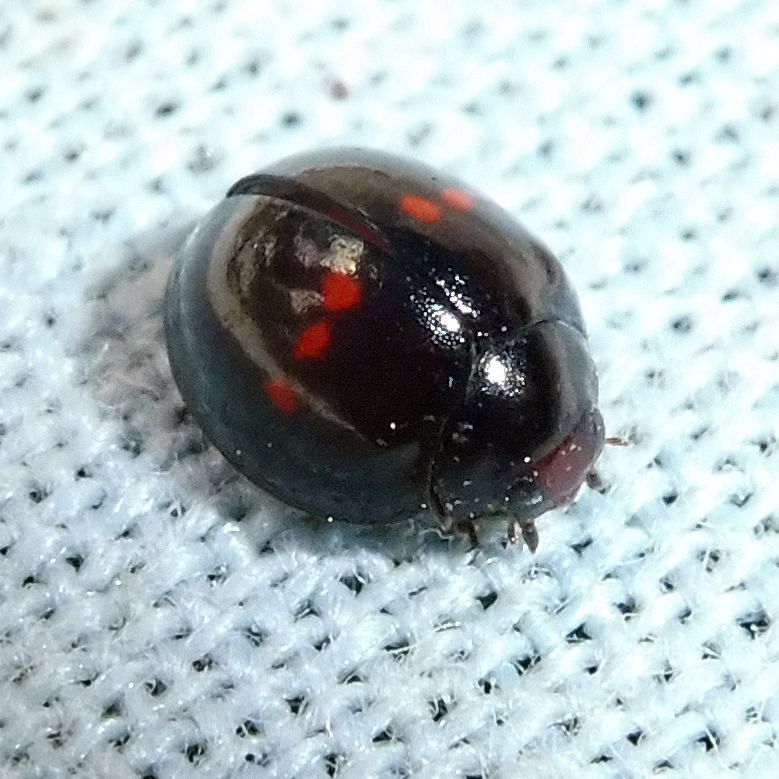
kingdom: Animalia
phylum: Arthropoda
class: Insecta
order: Coleoptera
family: Coccinellidae
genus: Chilocorus
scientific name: Chilocorus bipustulatus
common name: Heather ladybird
